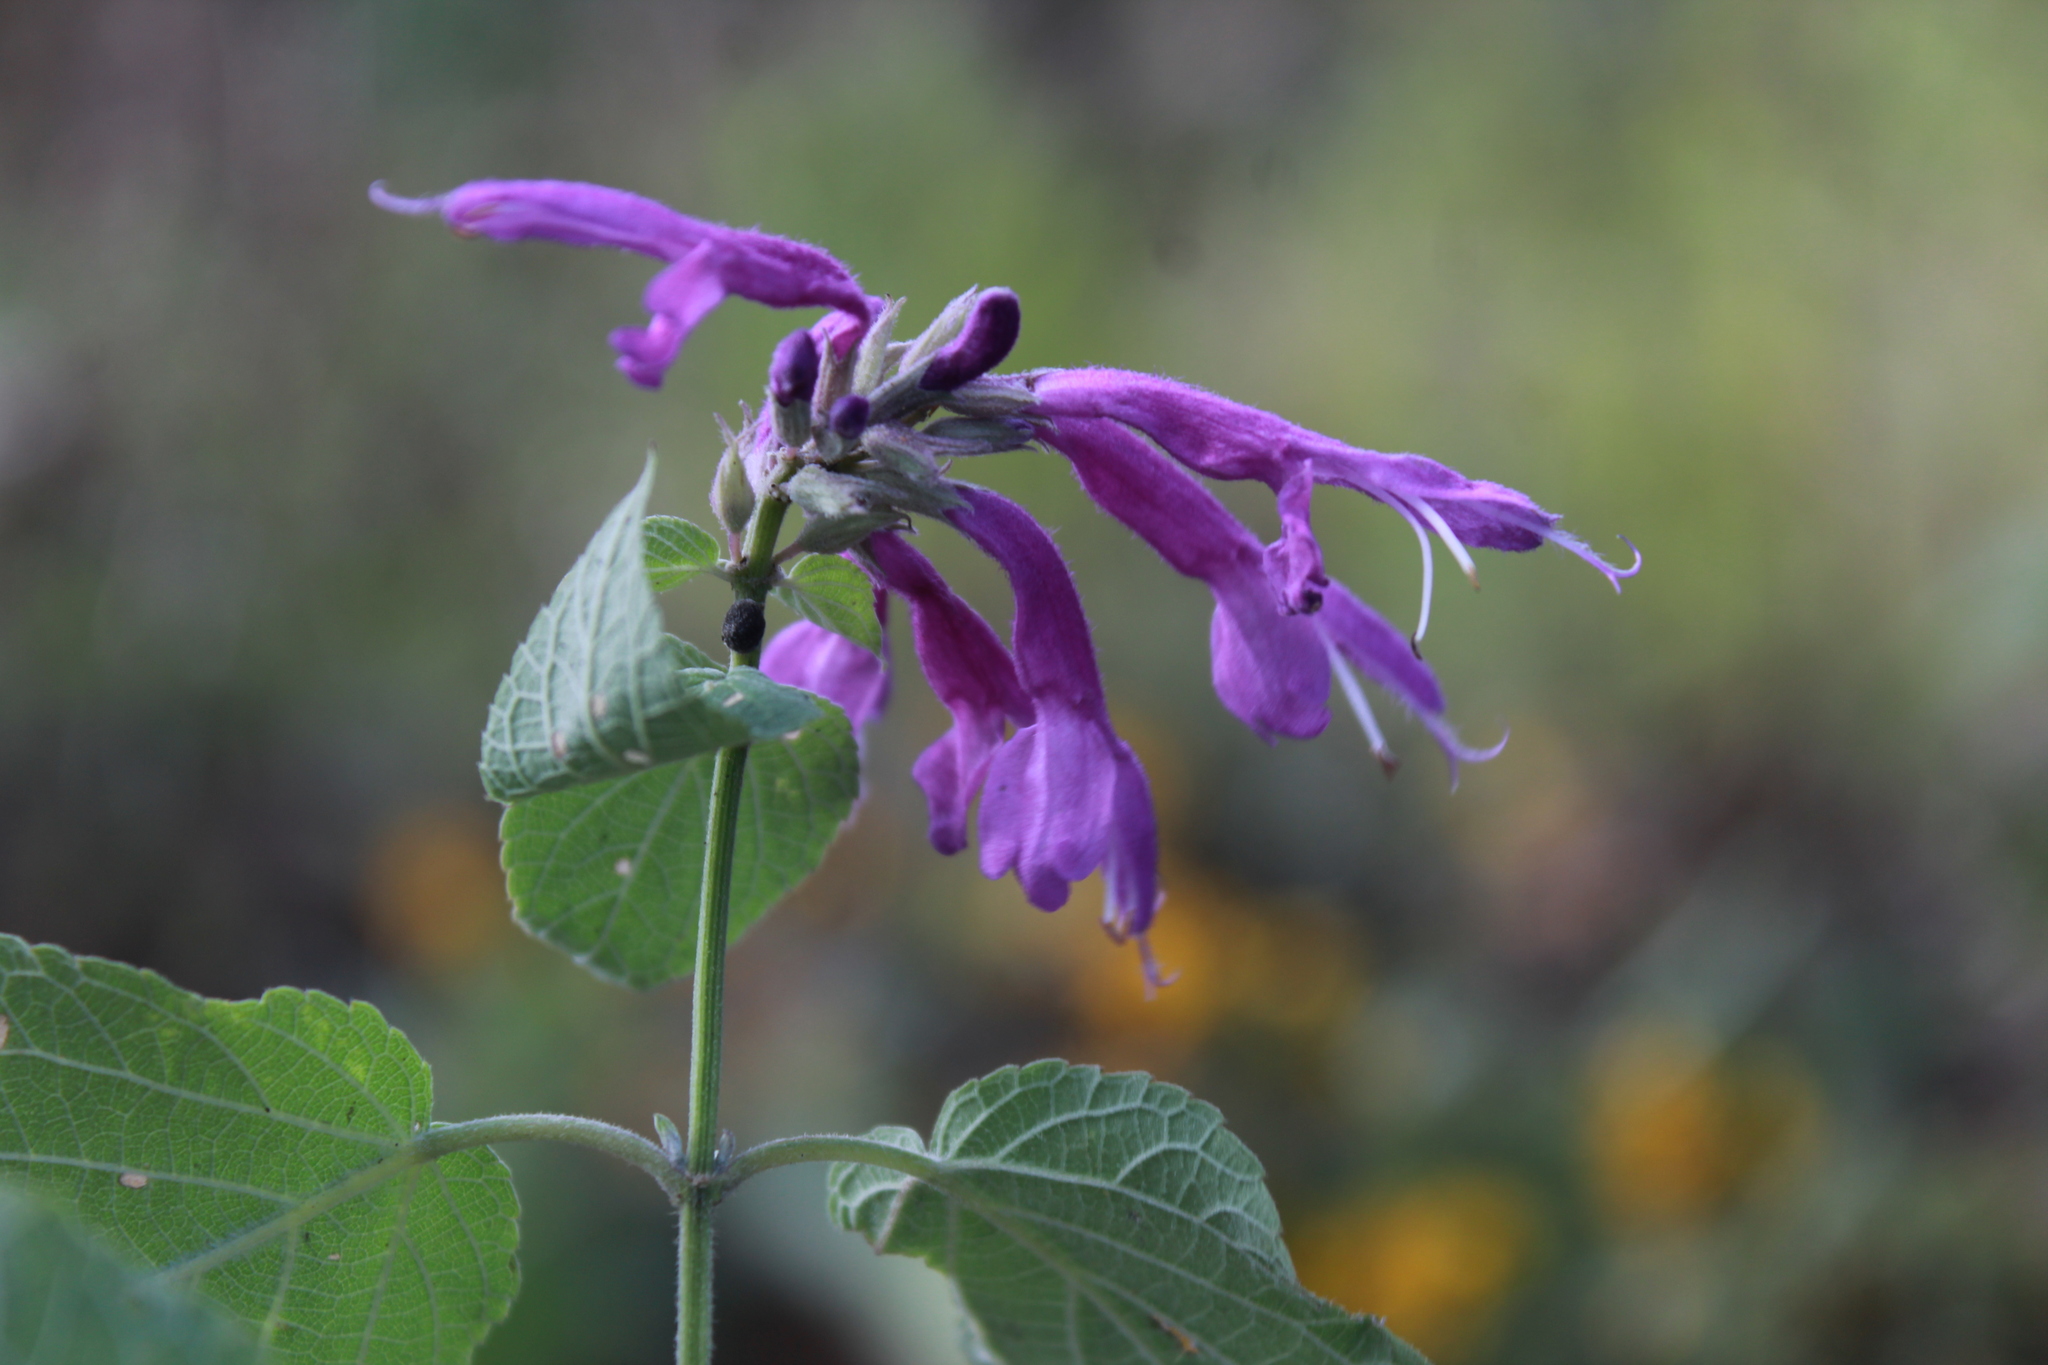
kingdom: Plantae
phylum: Tracheophyta
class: Magnoliopsida
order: Lamiales
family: Lamiaceae
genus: Salvia
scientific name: Salvia purpurea
